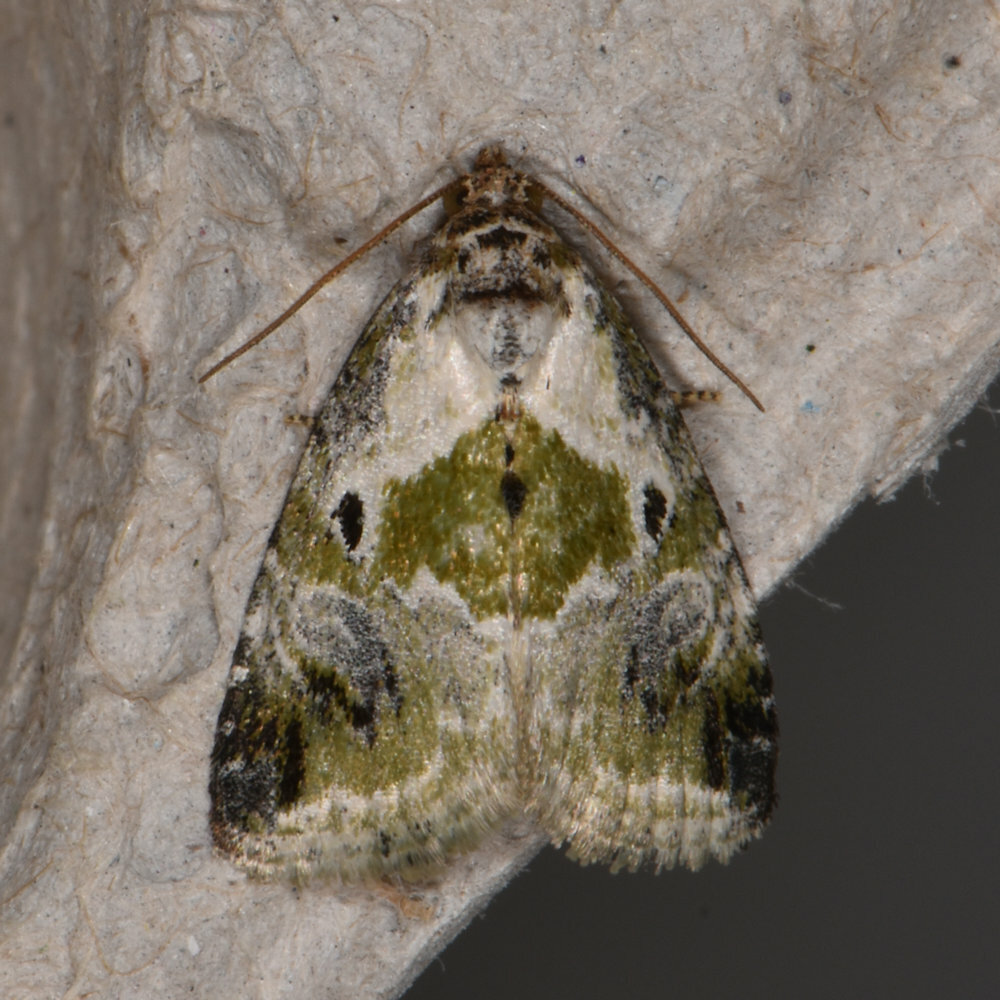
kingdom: Animalia
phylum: Arthropoda
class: Insecta
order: Lepidoptera
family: Noctuidae
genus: Maliattha
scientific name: Maliattha synochitis
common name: Black-dotted glyph
